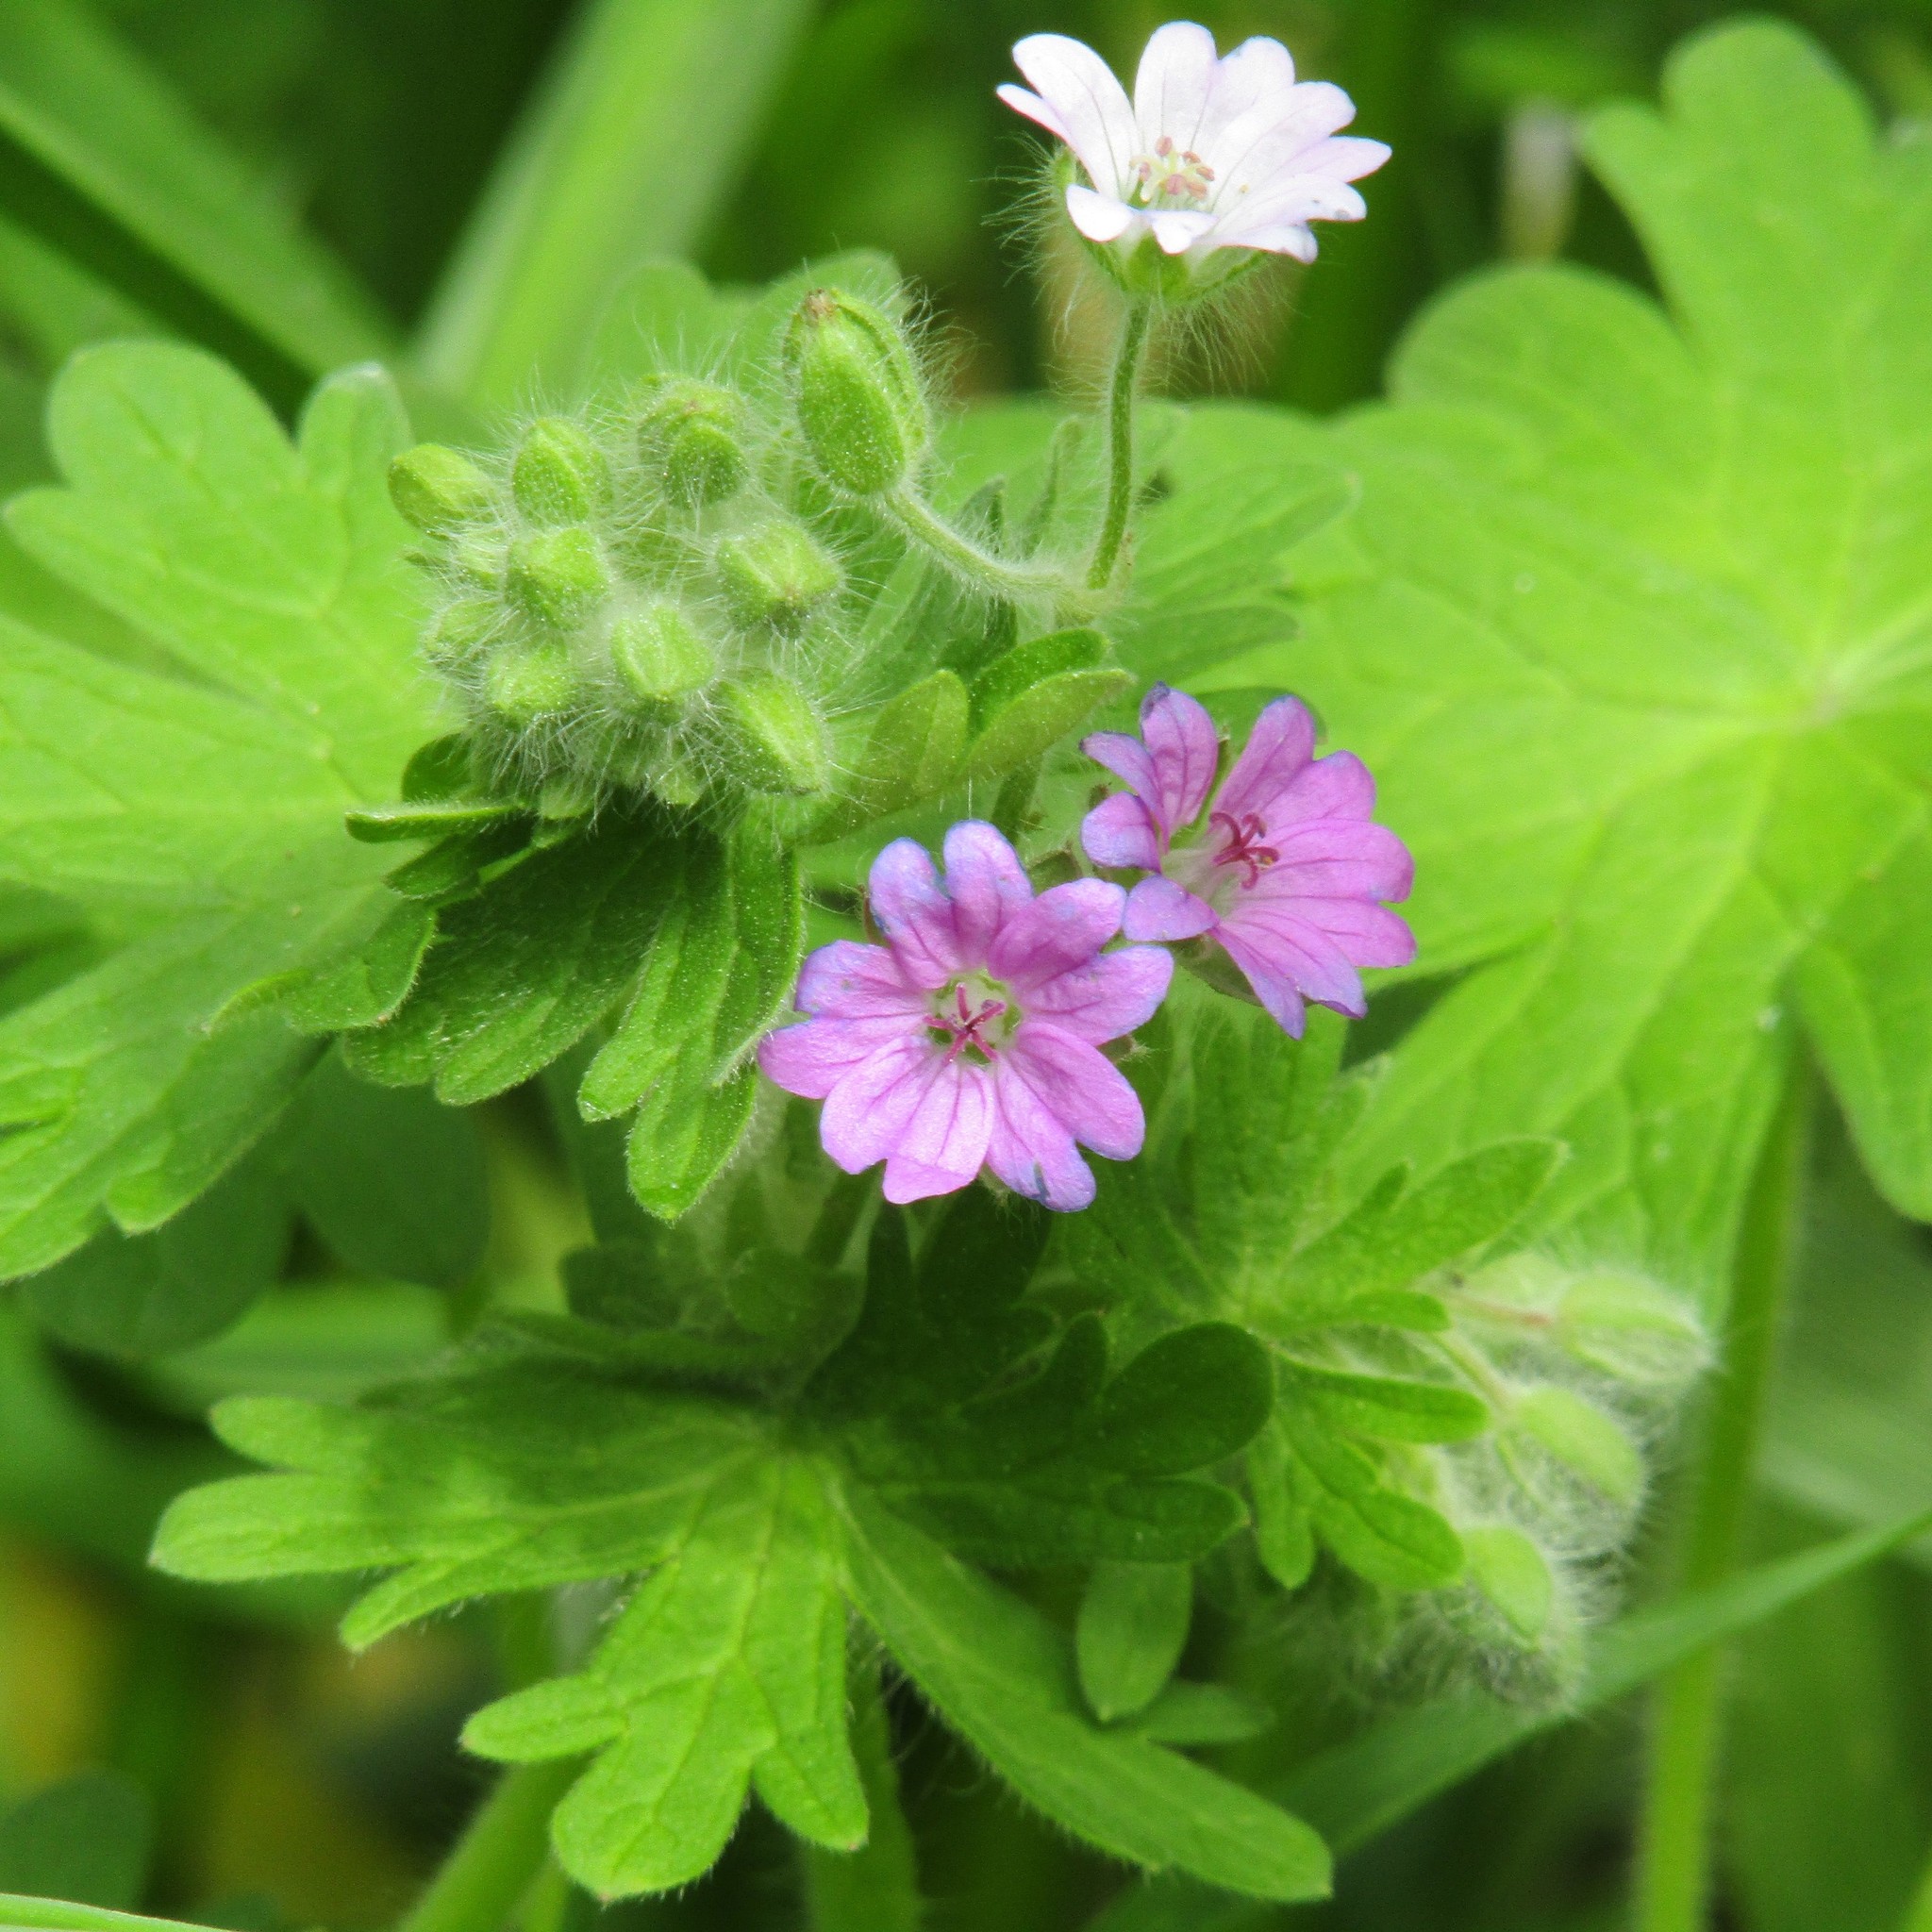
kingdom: Plantae
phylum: Tracheophyta
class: Magnoliopsida
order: Geraniales
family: Geraniaceae
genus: Geranium
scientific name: Geranium molle
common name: Dove's-foot crane's-bill
